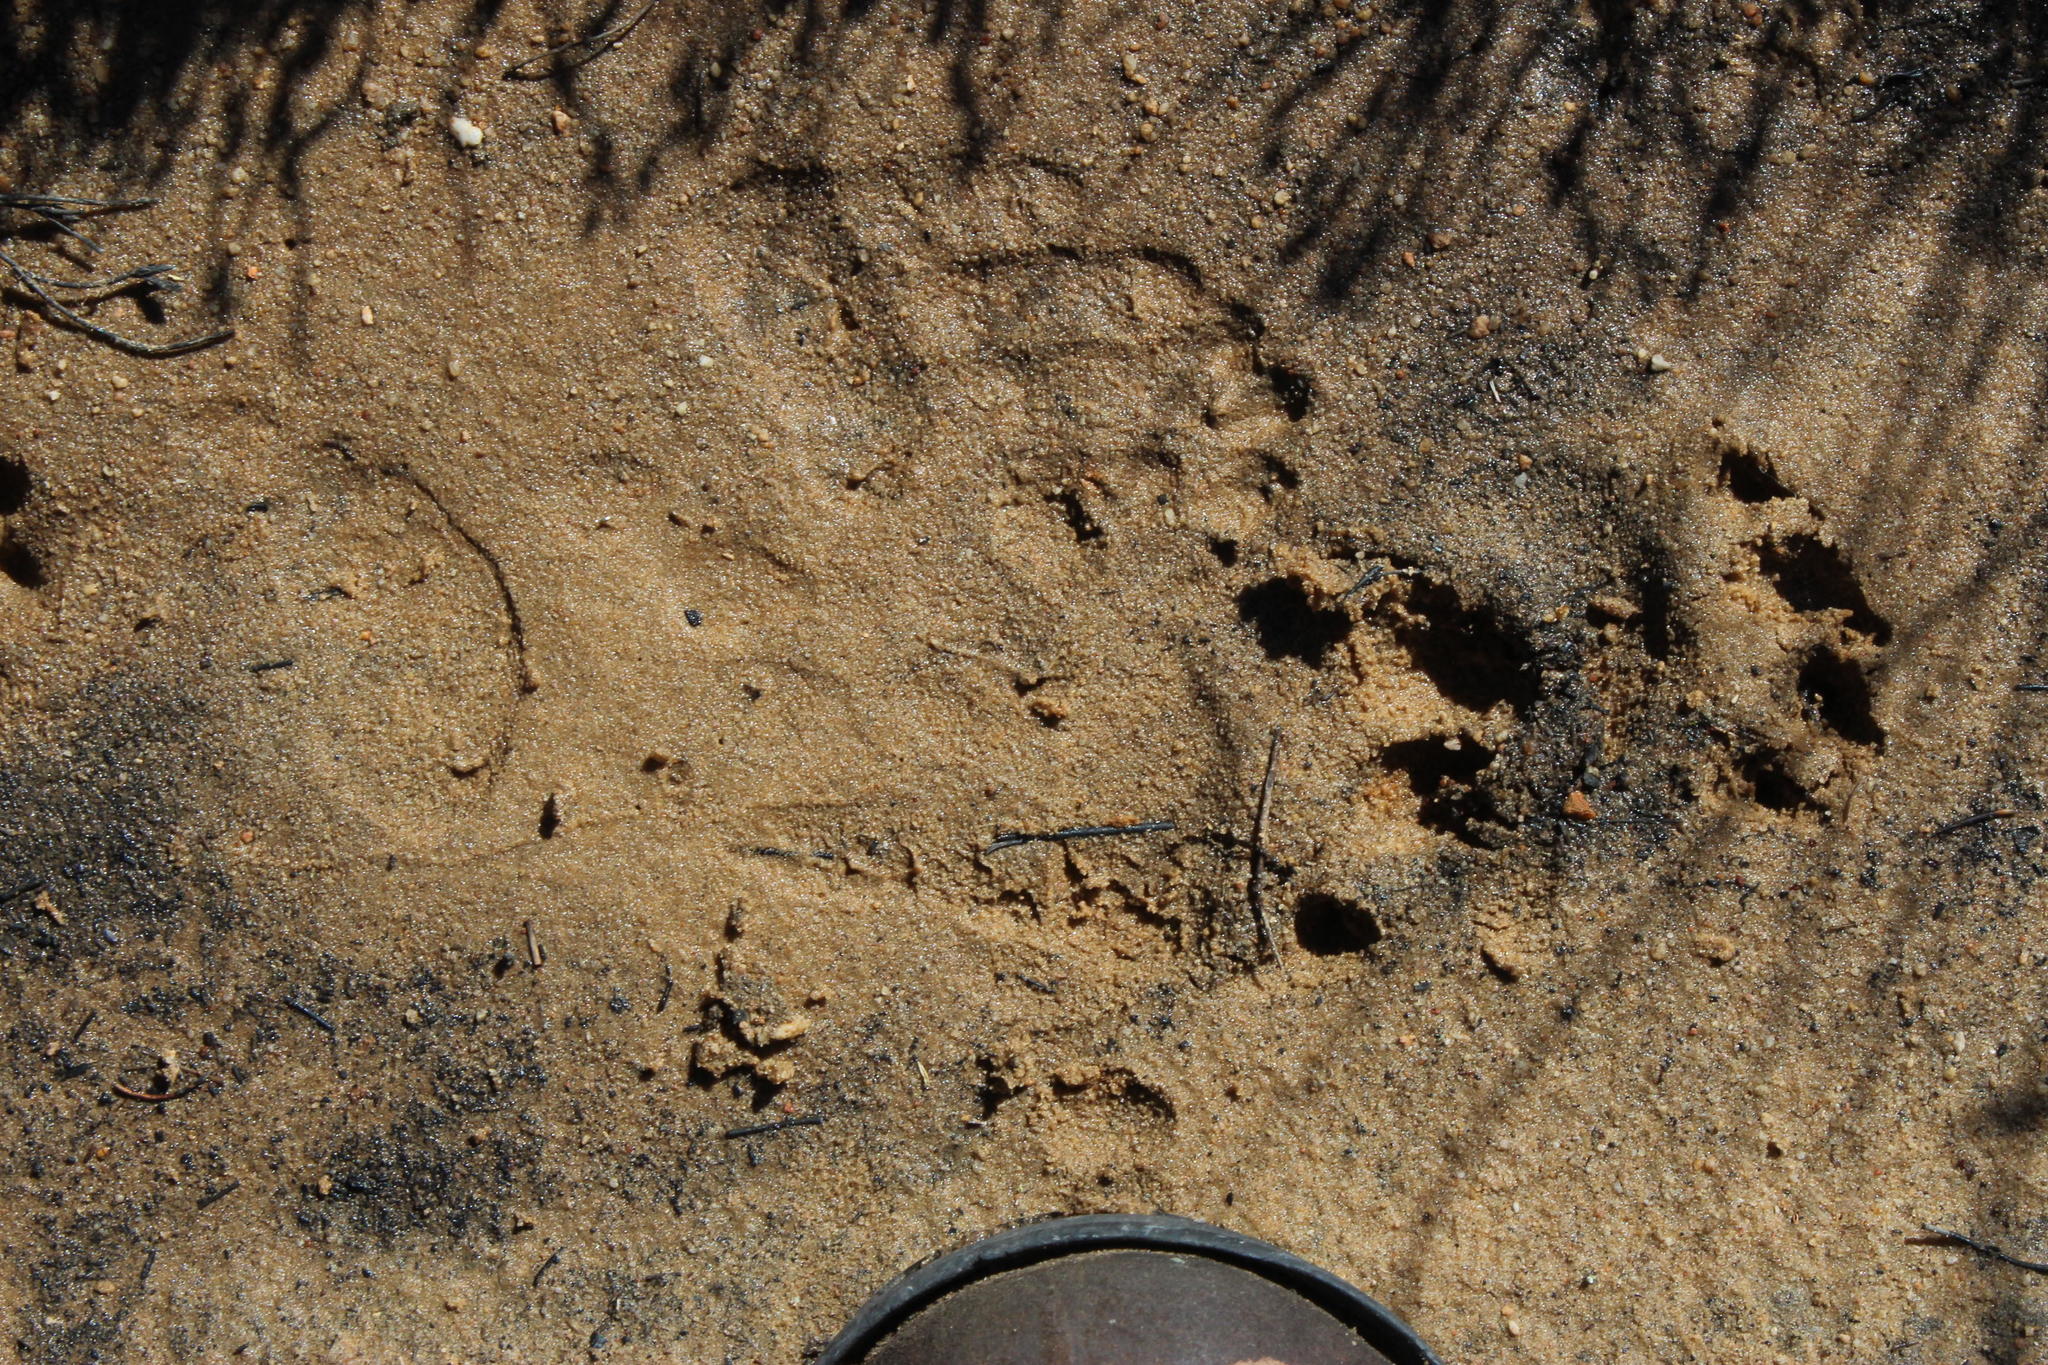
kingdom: Animalia
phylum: Chordata
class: Mammalia
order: Primates
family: Cercopithecidae
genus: Papio
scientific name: Papio ursinus
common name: Chacma baboon
